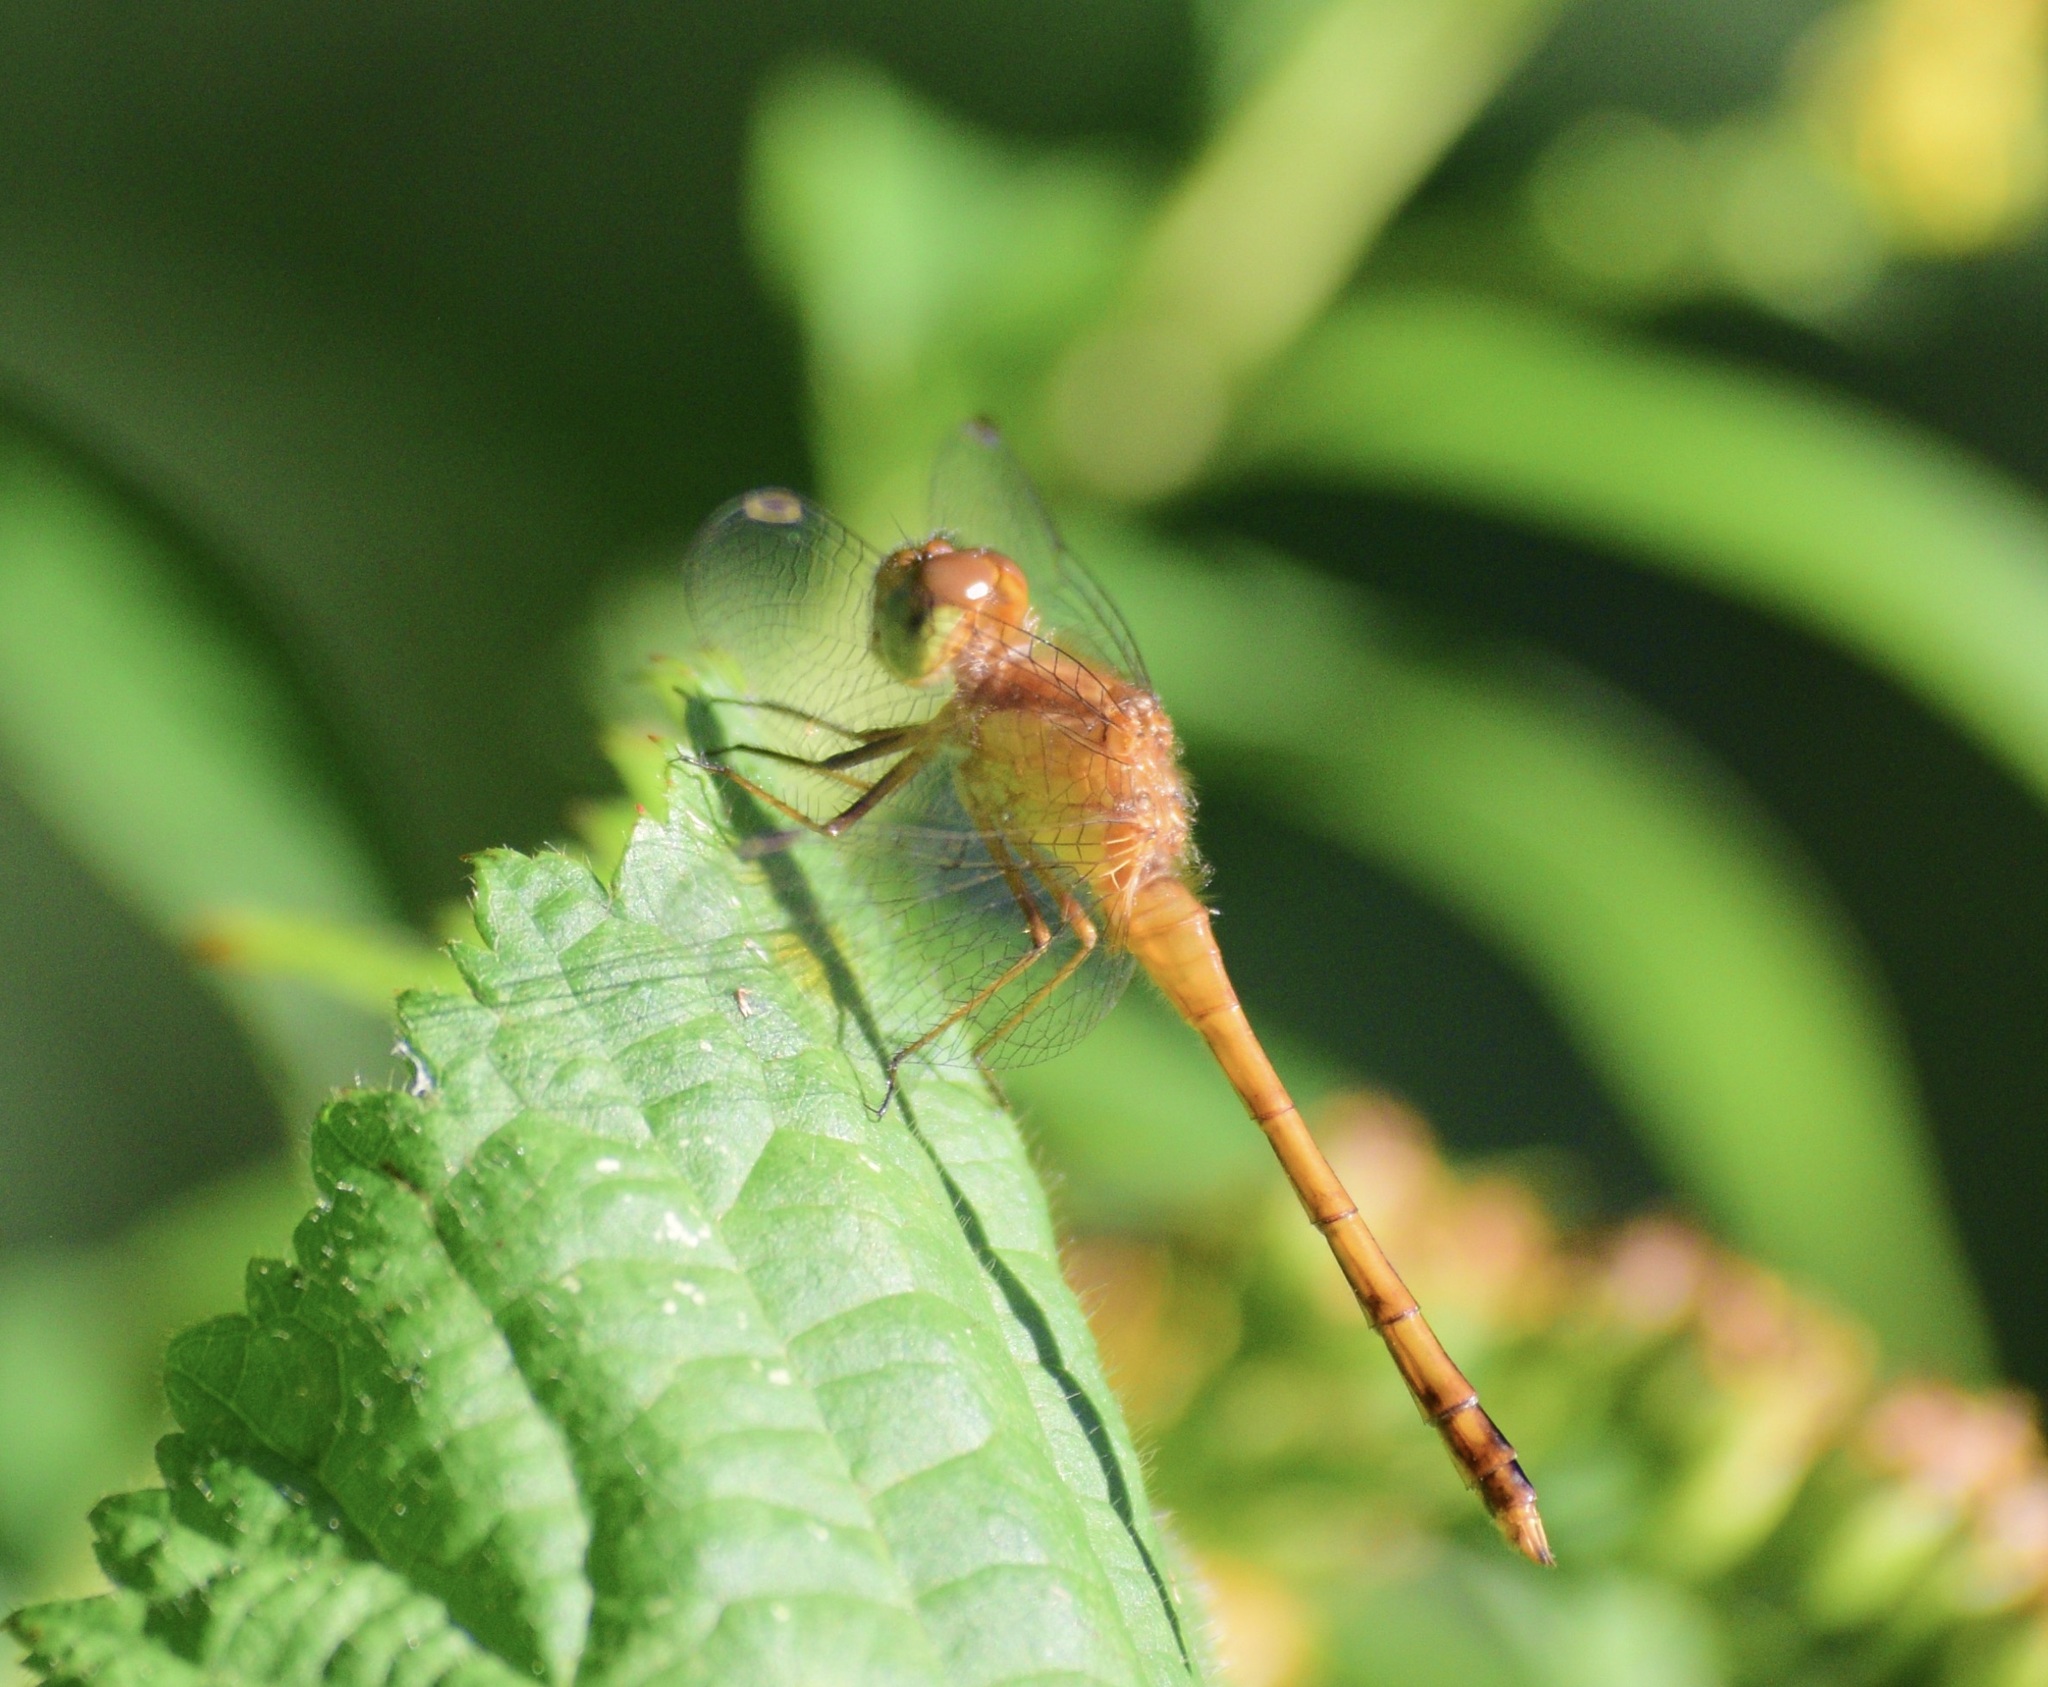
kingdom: Animalia
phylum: Arthropoda
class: Insecta
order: Odonata
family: Libellulidae
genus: Sympetrum
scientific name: Sympetrum vicinum
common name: Autumn meadowhawk
